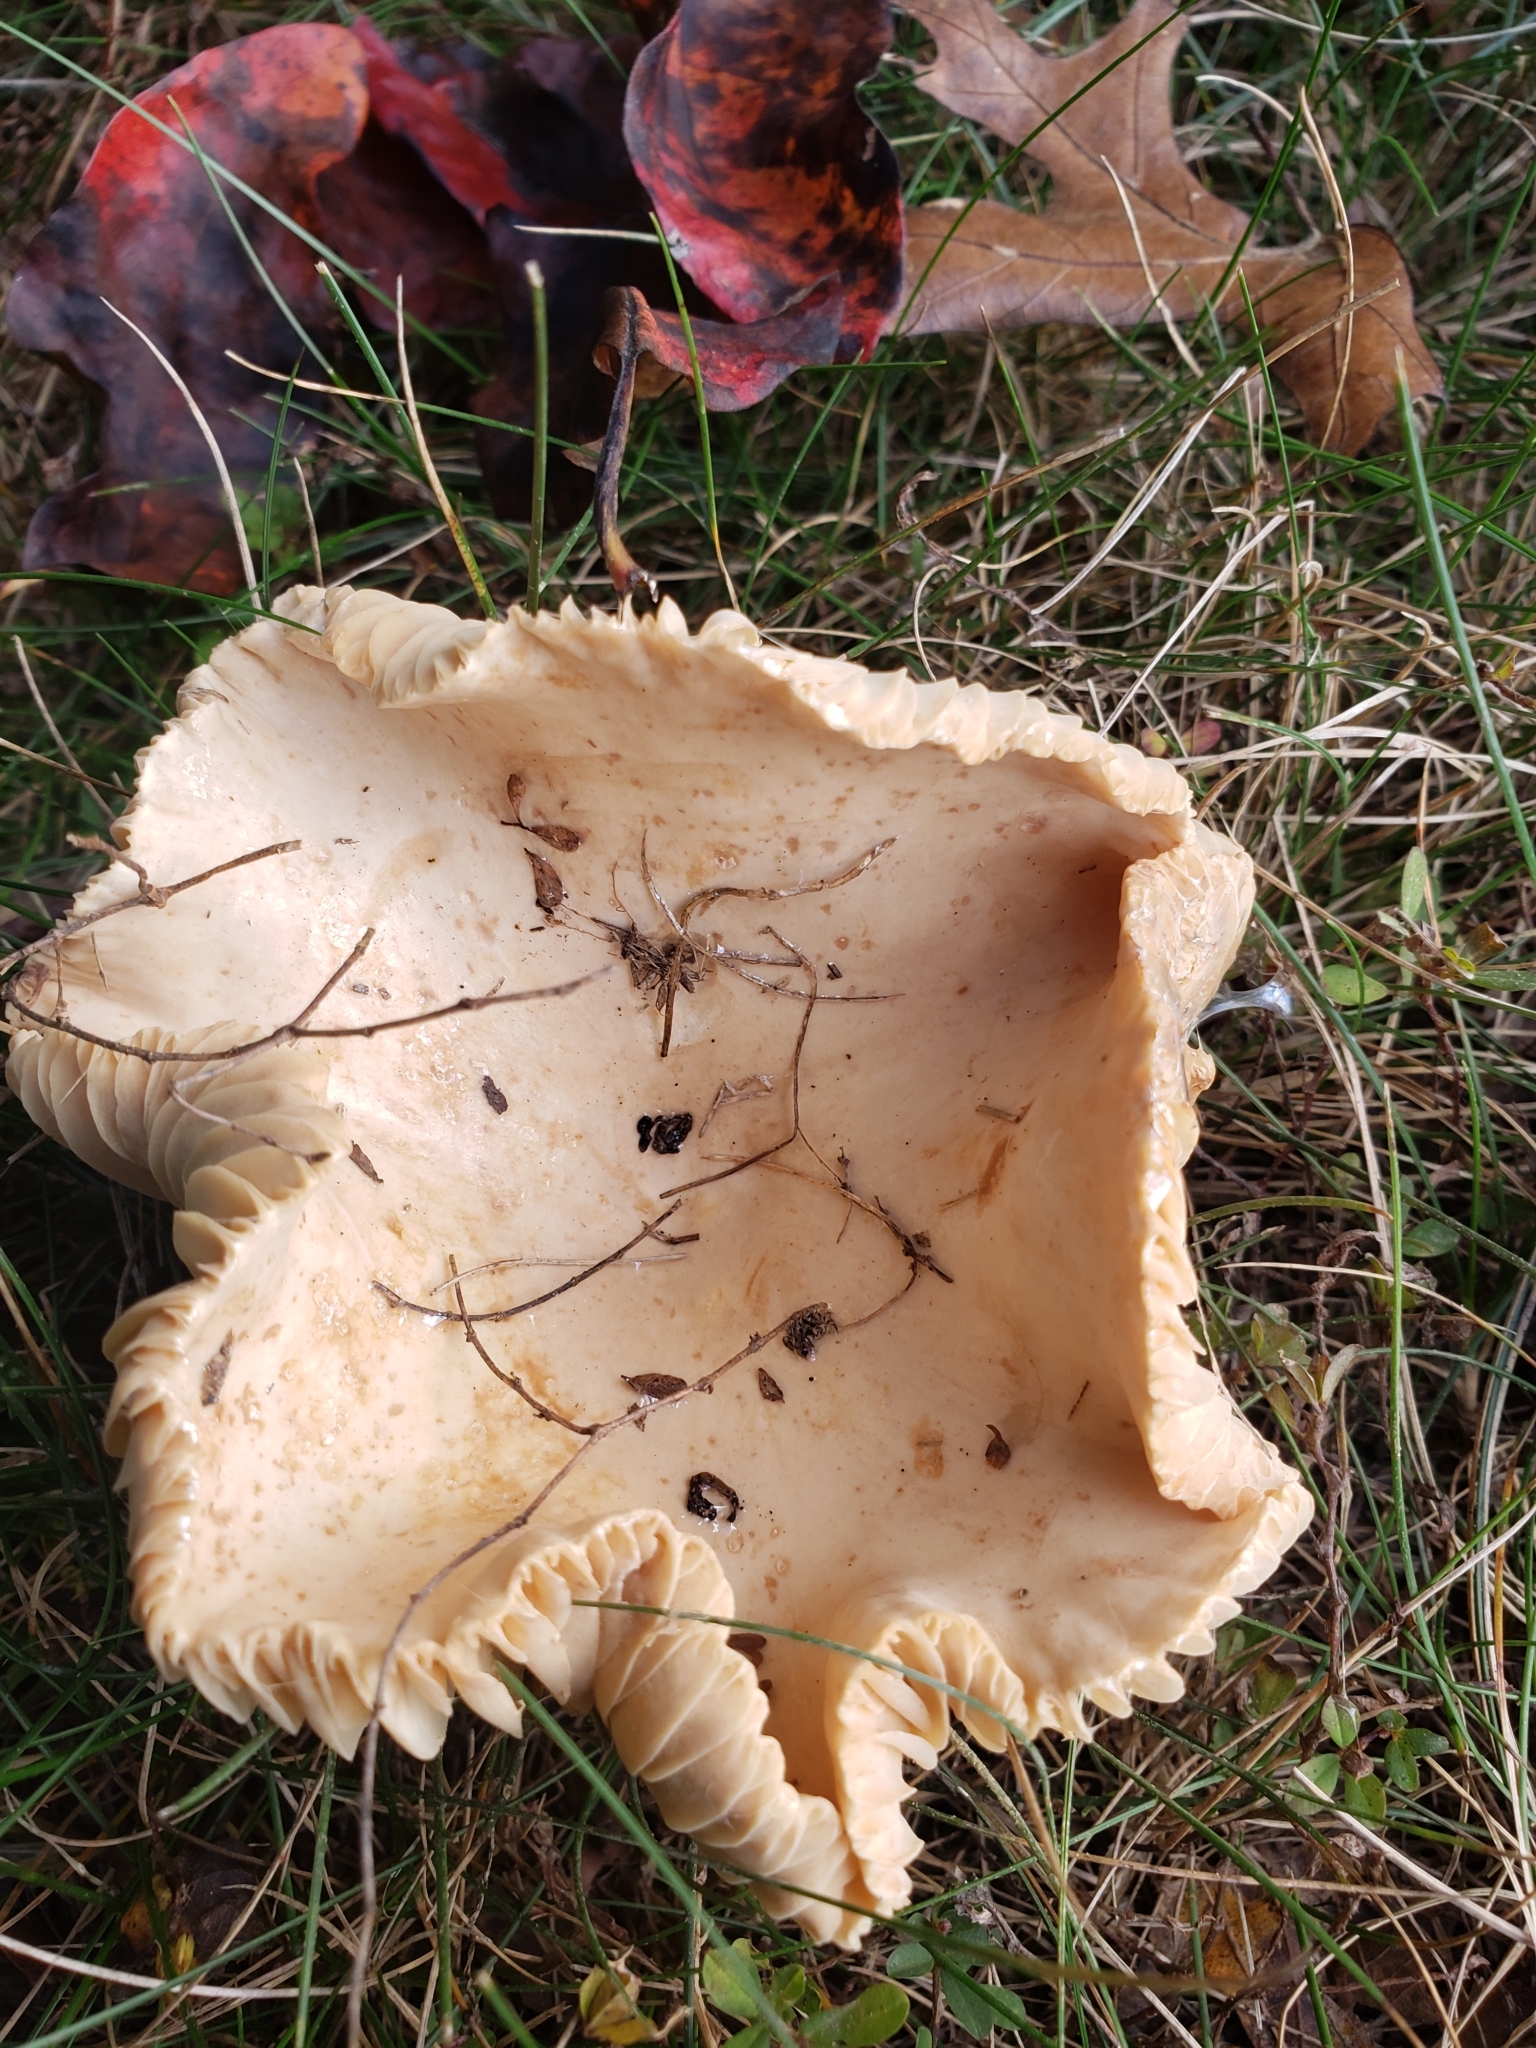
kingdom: Fungi
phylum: Basidiomycota
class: Agaricomycetes
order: Russulales
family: Russulaceae
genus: Lactarius
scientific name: Lactarius subplinthogalus
